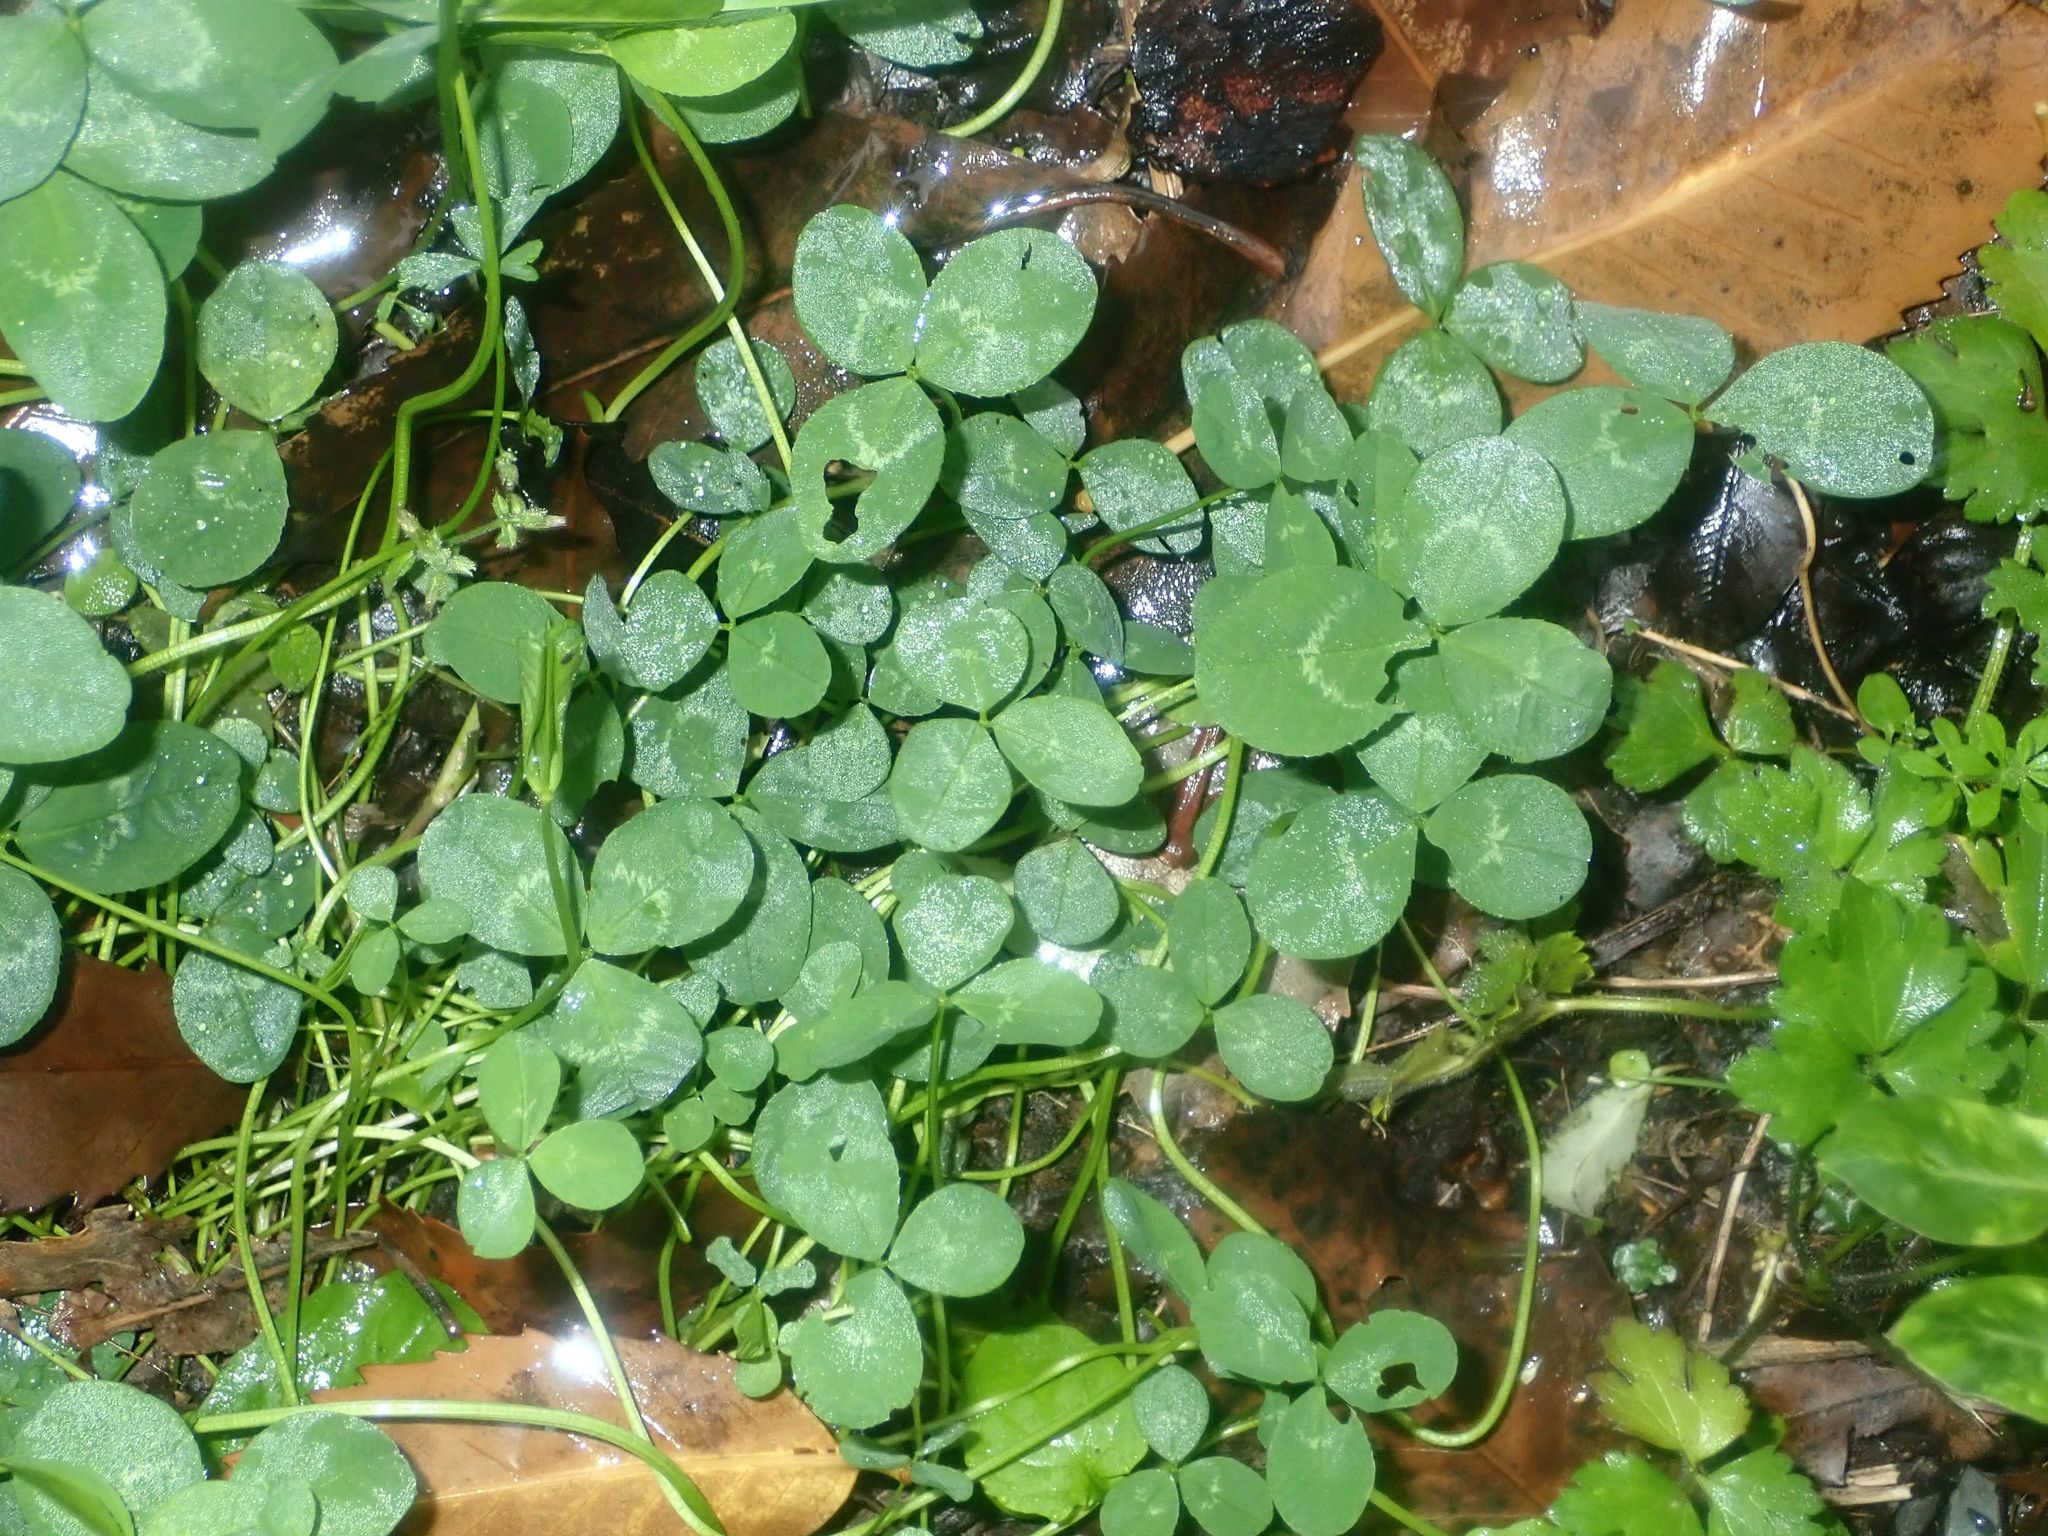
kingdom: Plantae
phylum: Tracheophyta
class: Magnoliopsida
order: Fabales
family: Fabaceae
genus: Trifolium
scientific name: Trifolium repens
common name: White clover
